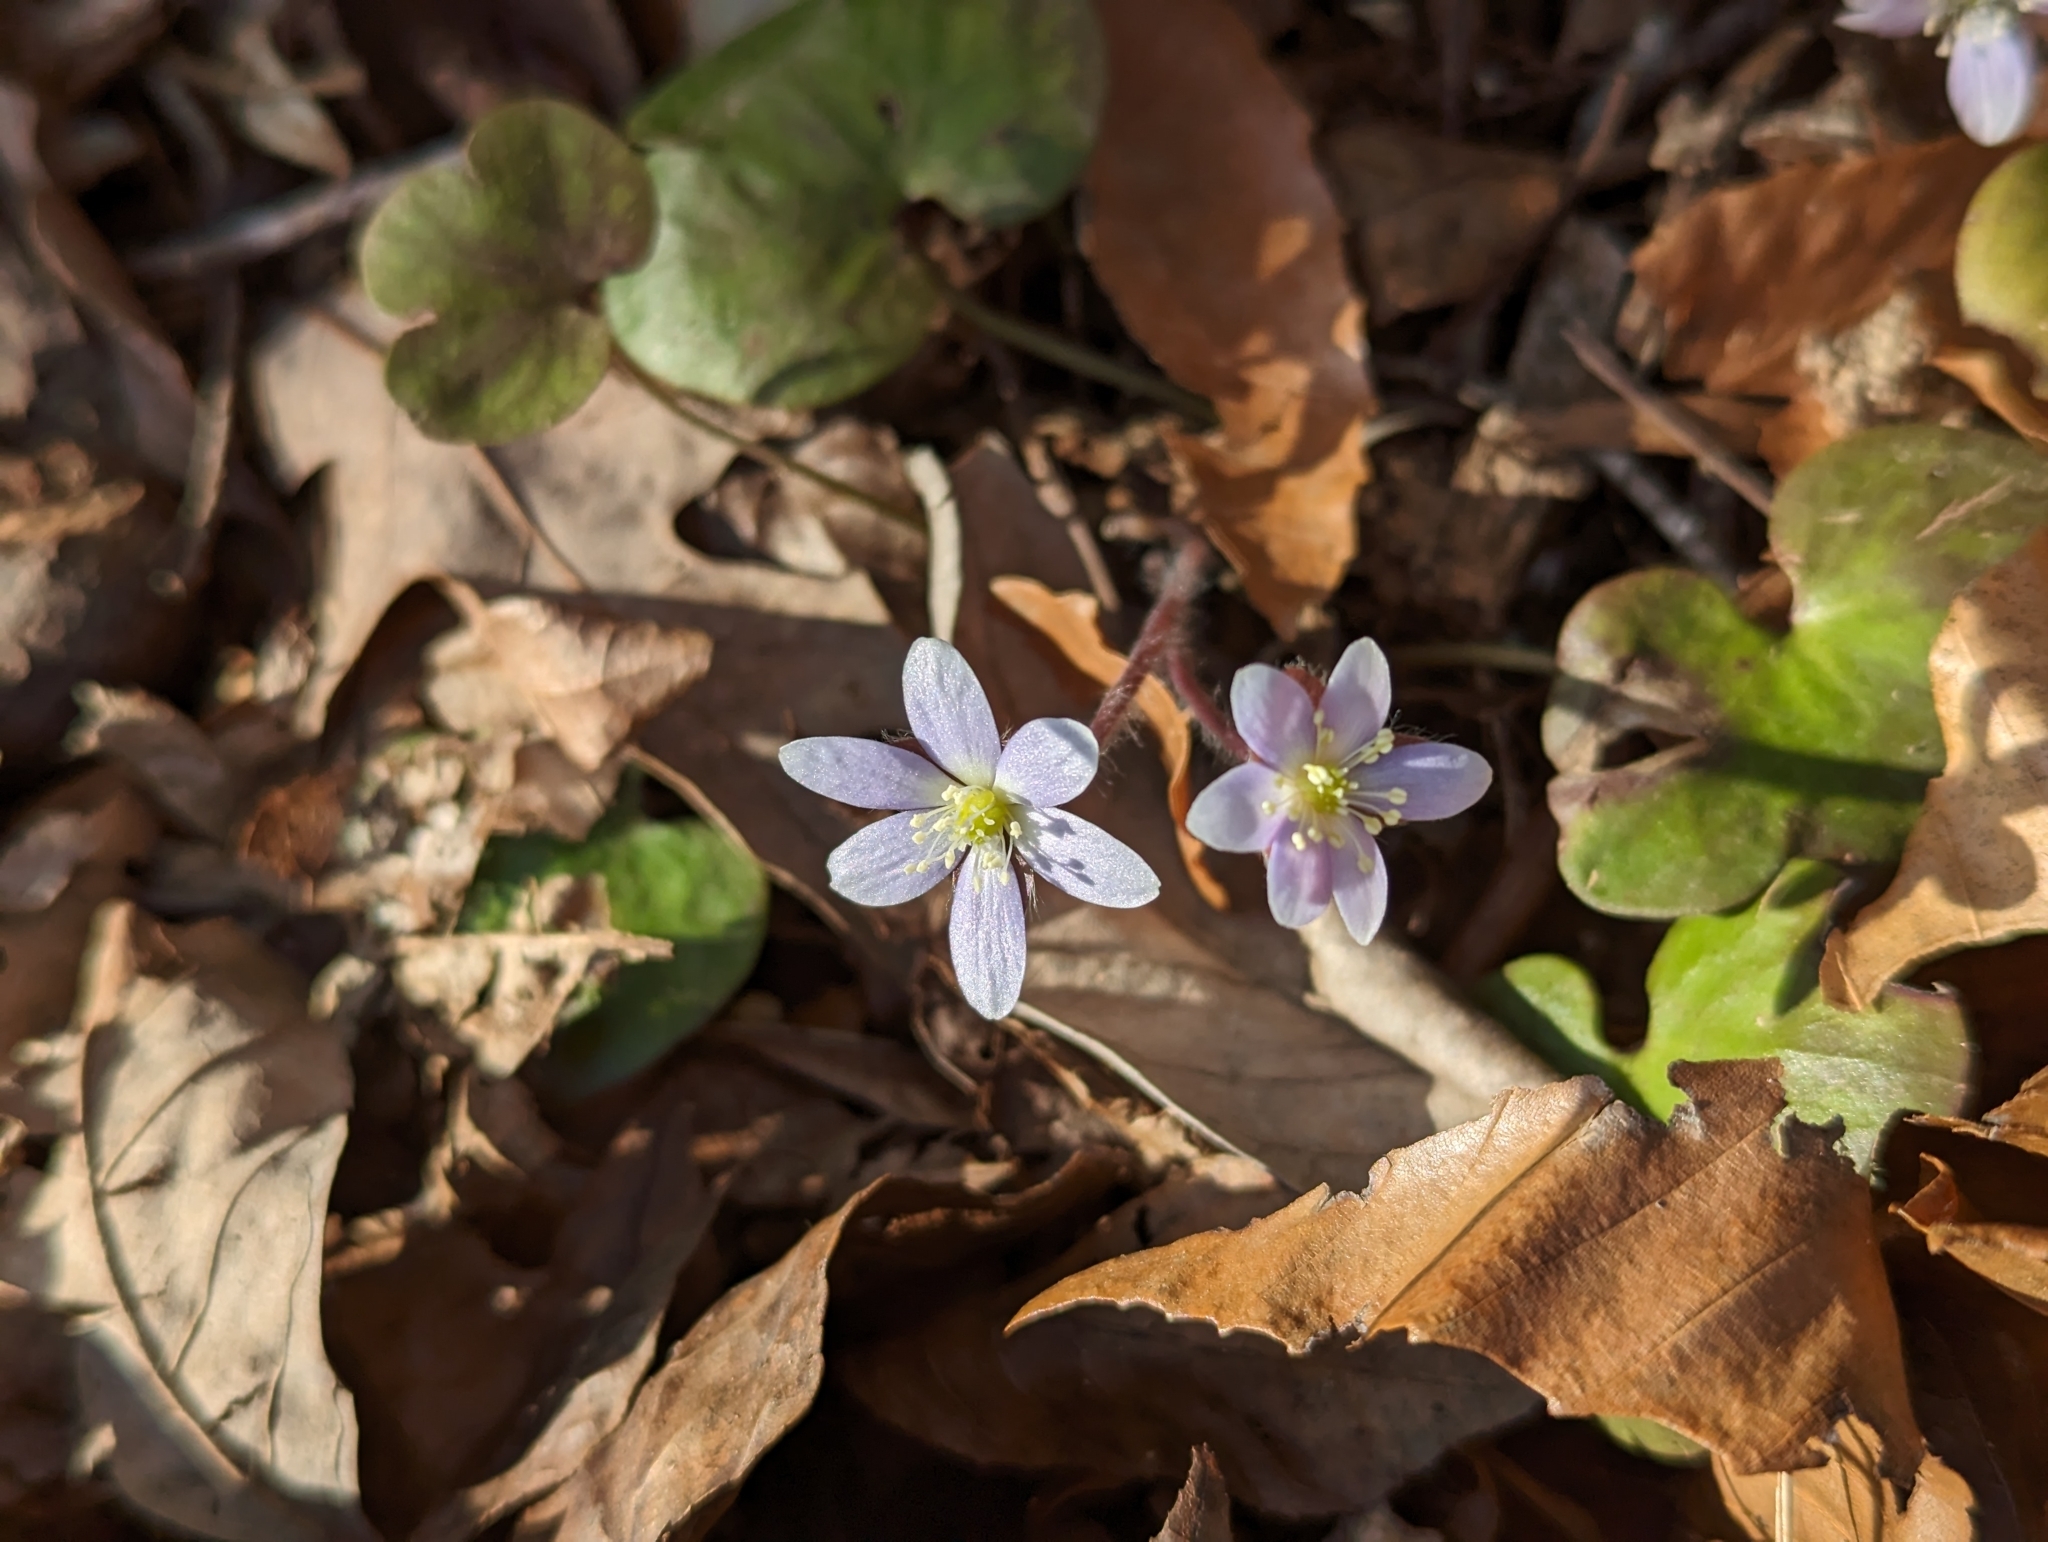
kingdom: Plantae
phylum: Tracheophyta
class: Magnoliopsida
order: Ranunculales
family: Ranunculaceae
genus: Hepatica
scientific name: Hepatica americana
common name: American hepatica
